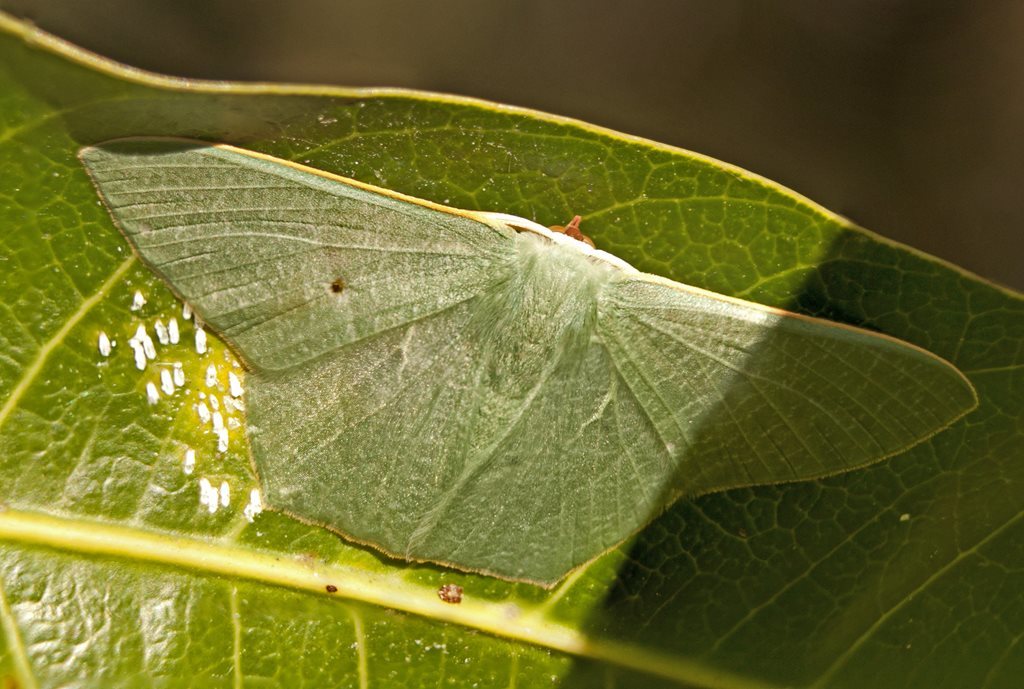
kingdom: Animalia
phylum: Arthropoda
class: Insecta
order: Lepidoptera
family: Geometridae
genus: Thalassodes
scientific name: Thalassodes pilaria
